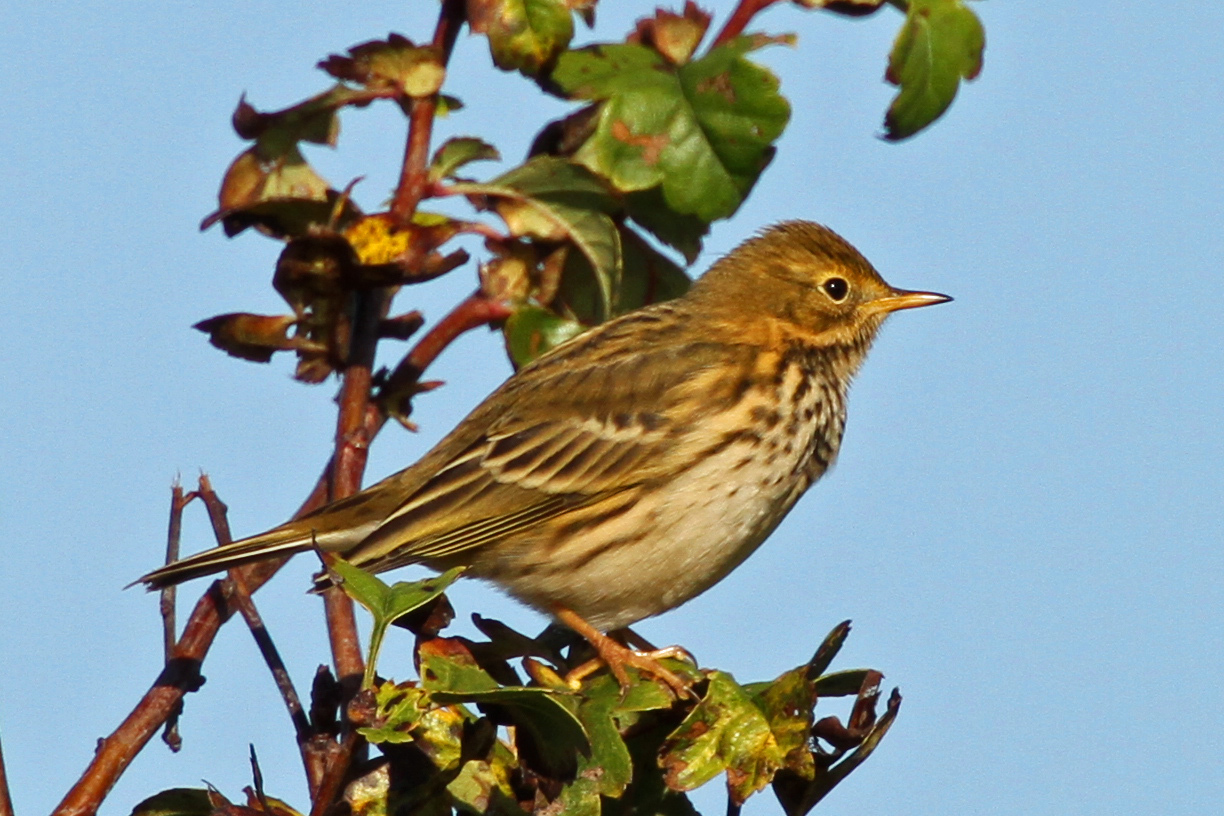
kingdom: Animalia
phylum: Chordata
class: Aves
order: Passeriformes
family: Motacillidae
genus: Anthus
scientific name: Anthus pratensis
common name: Meadow pipit
